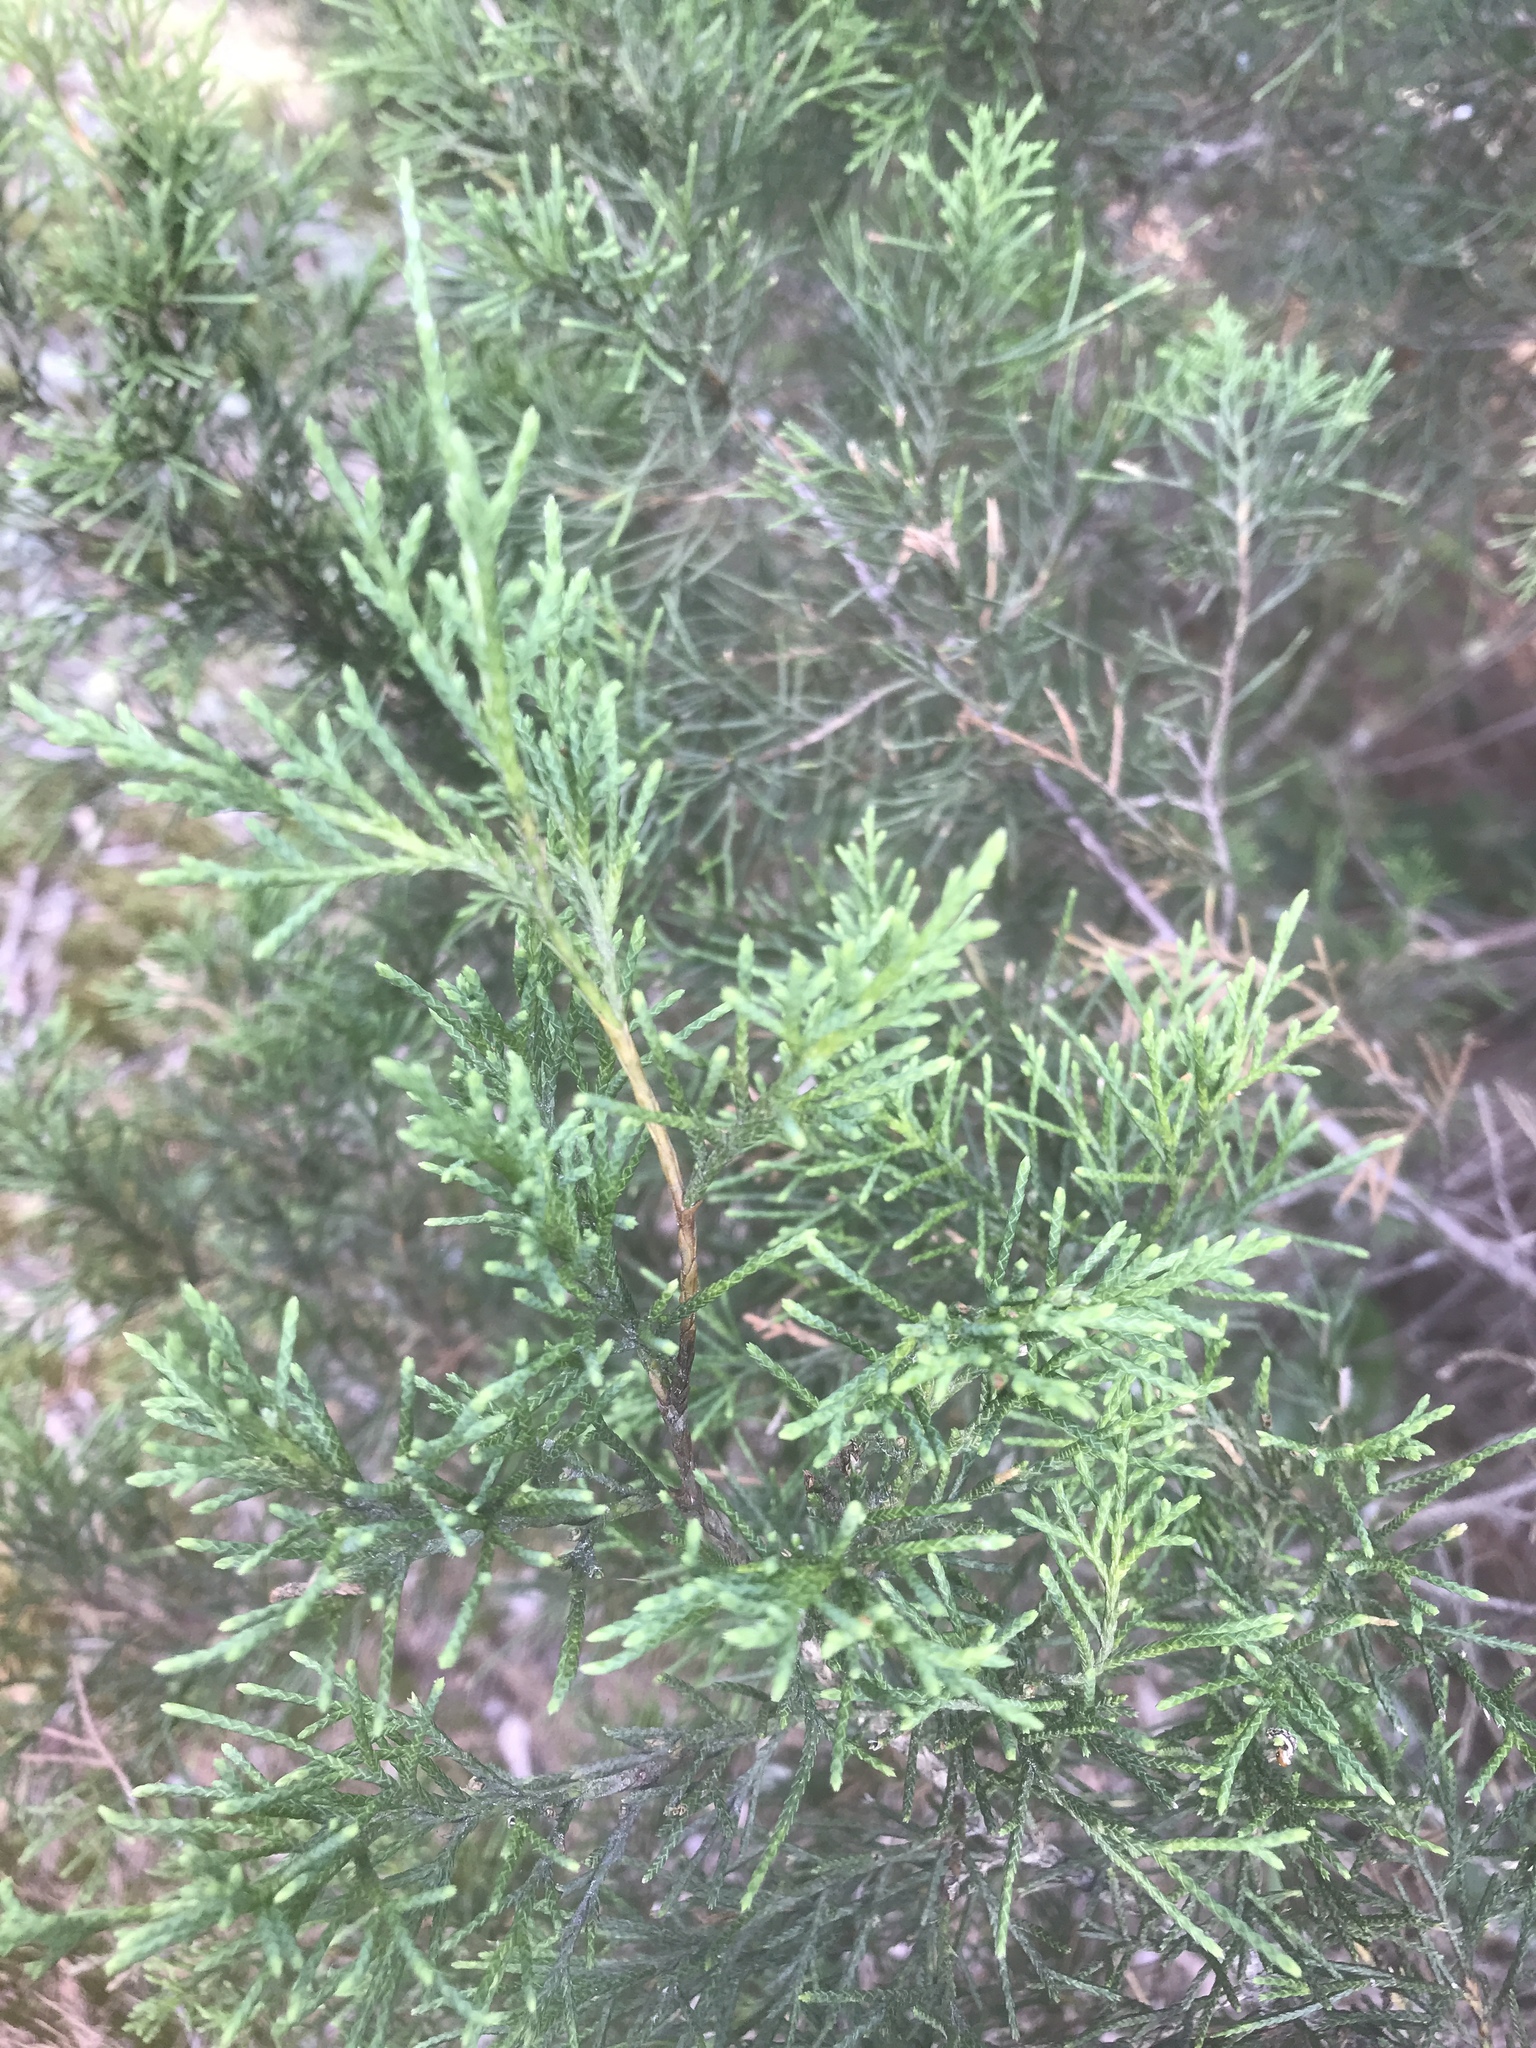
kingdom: Plantae
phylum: Tracheophyta
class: Pinopsida
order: Pinales
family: Cupressaceae
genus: Juniperus
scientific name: Juniperus virginiana
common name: Red juniper
